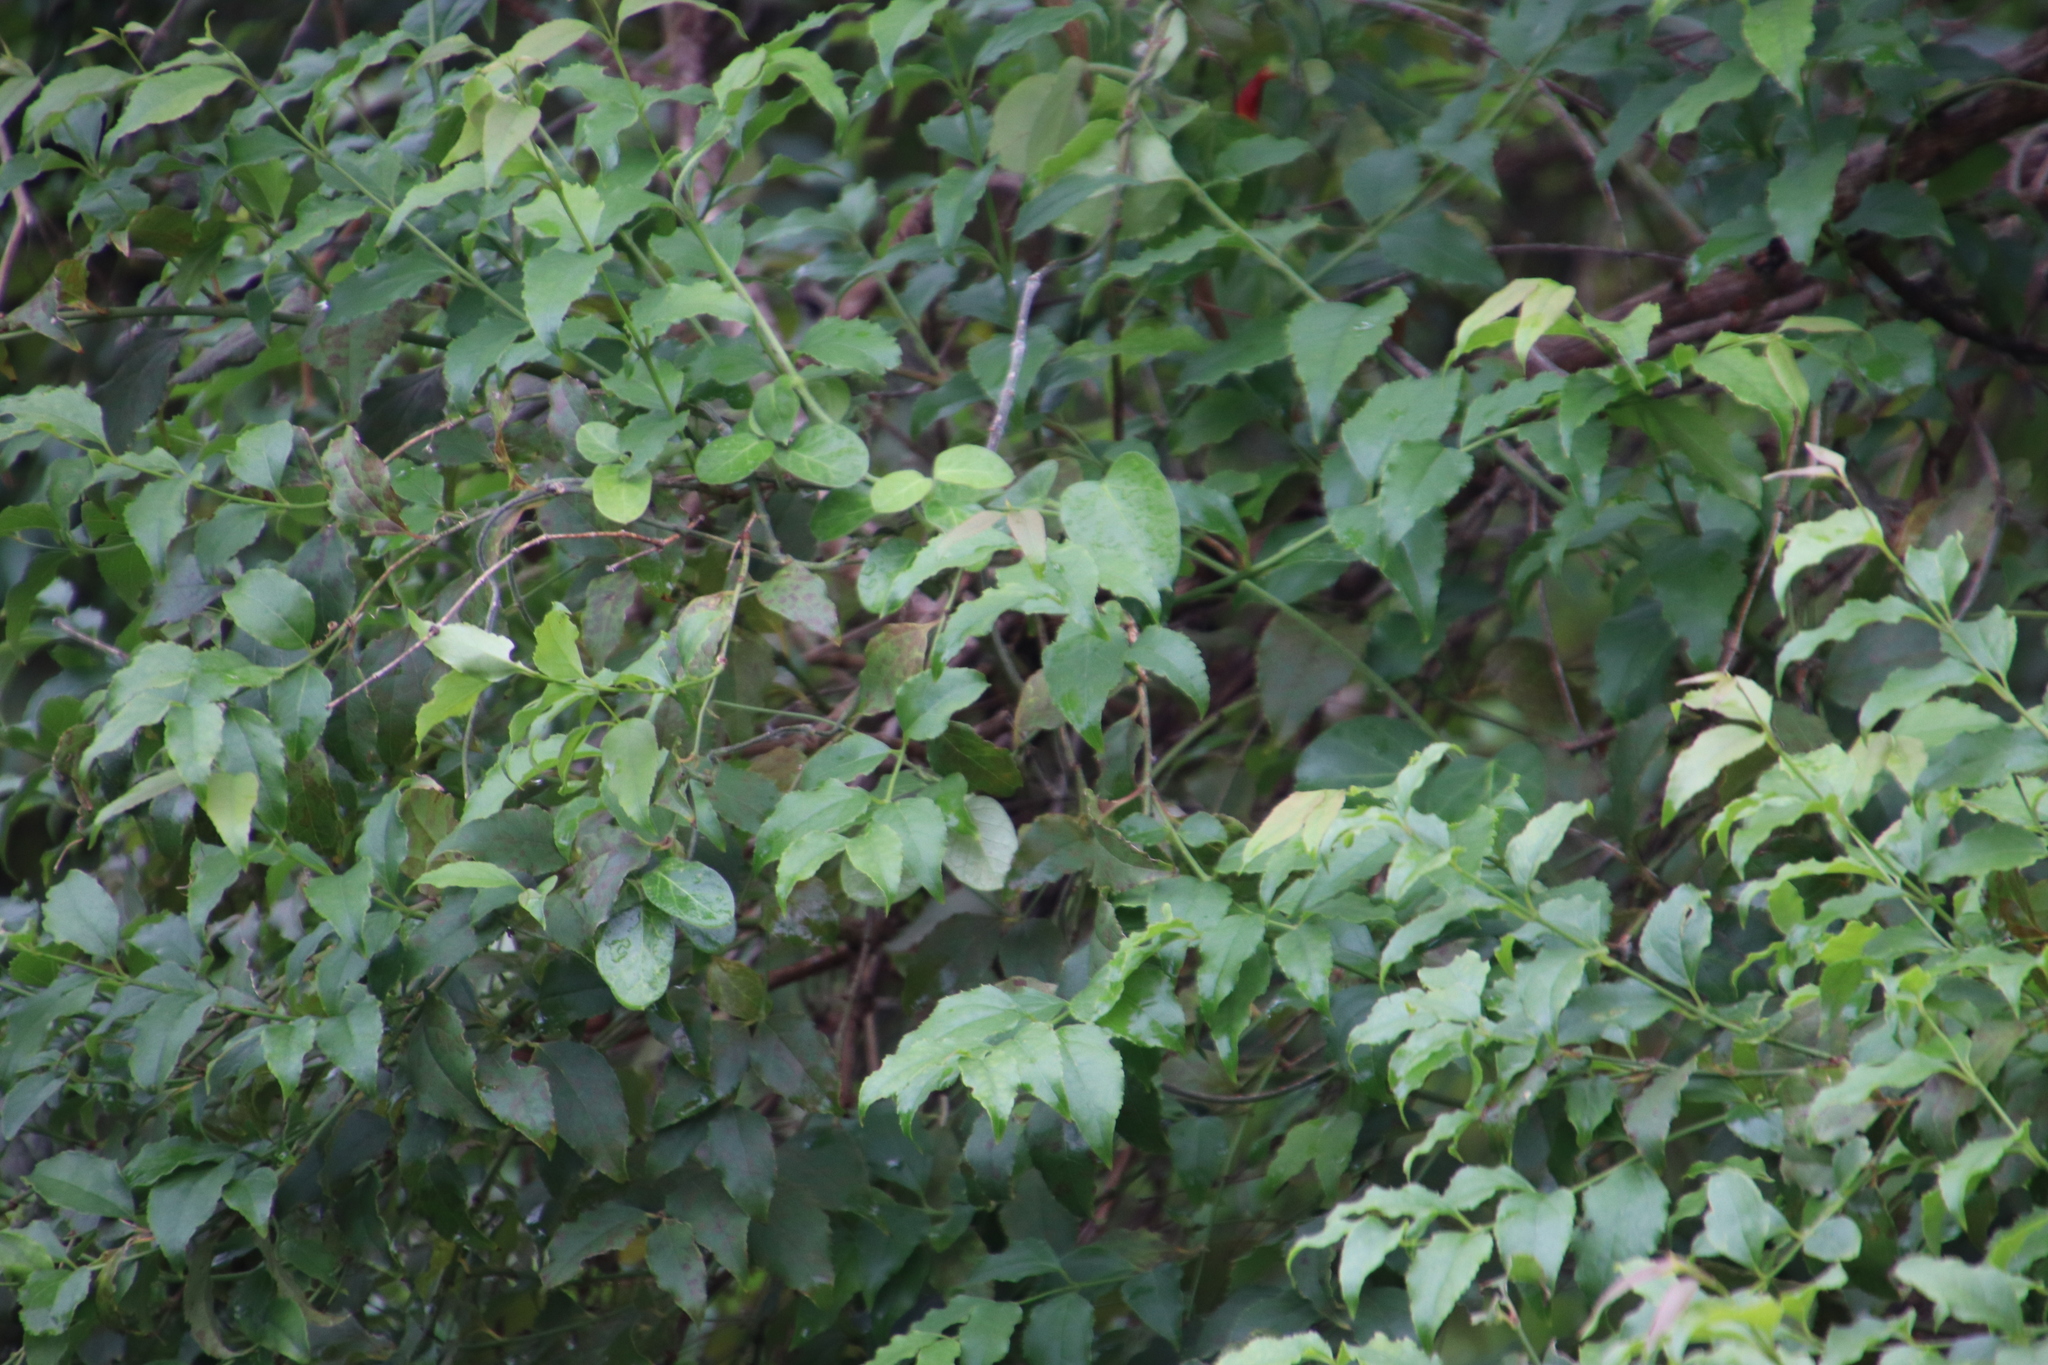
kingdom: Plantae
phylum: Tracheophyta
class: Magnoliopsida
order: Lamiales
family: Stilbaceae
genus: Halleria
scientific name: Halleria lucida
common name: Tree fuschia
